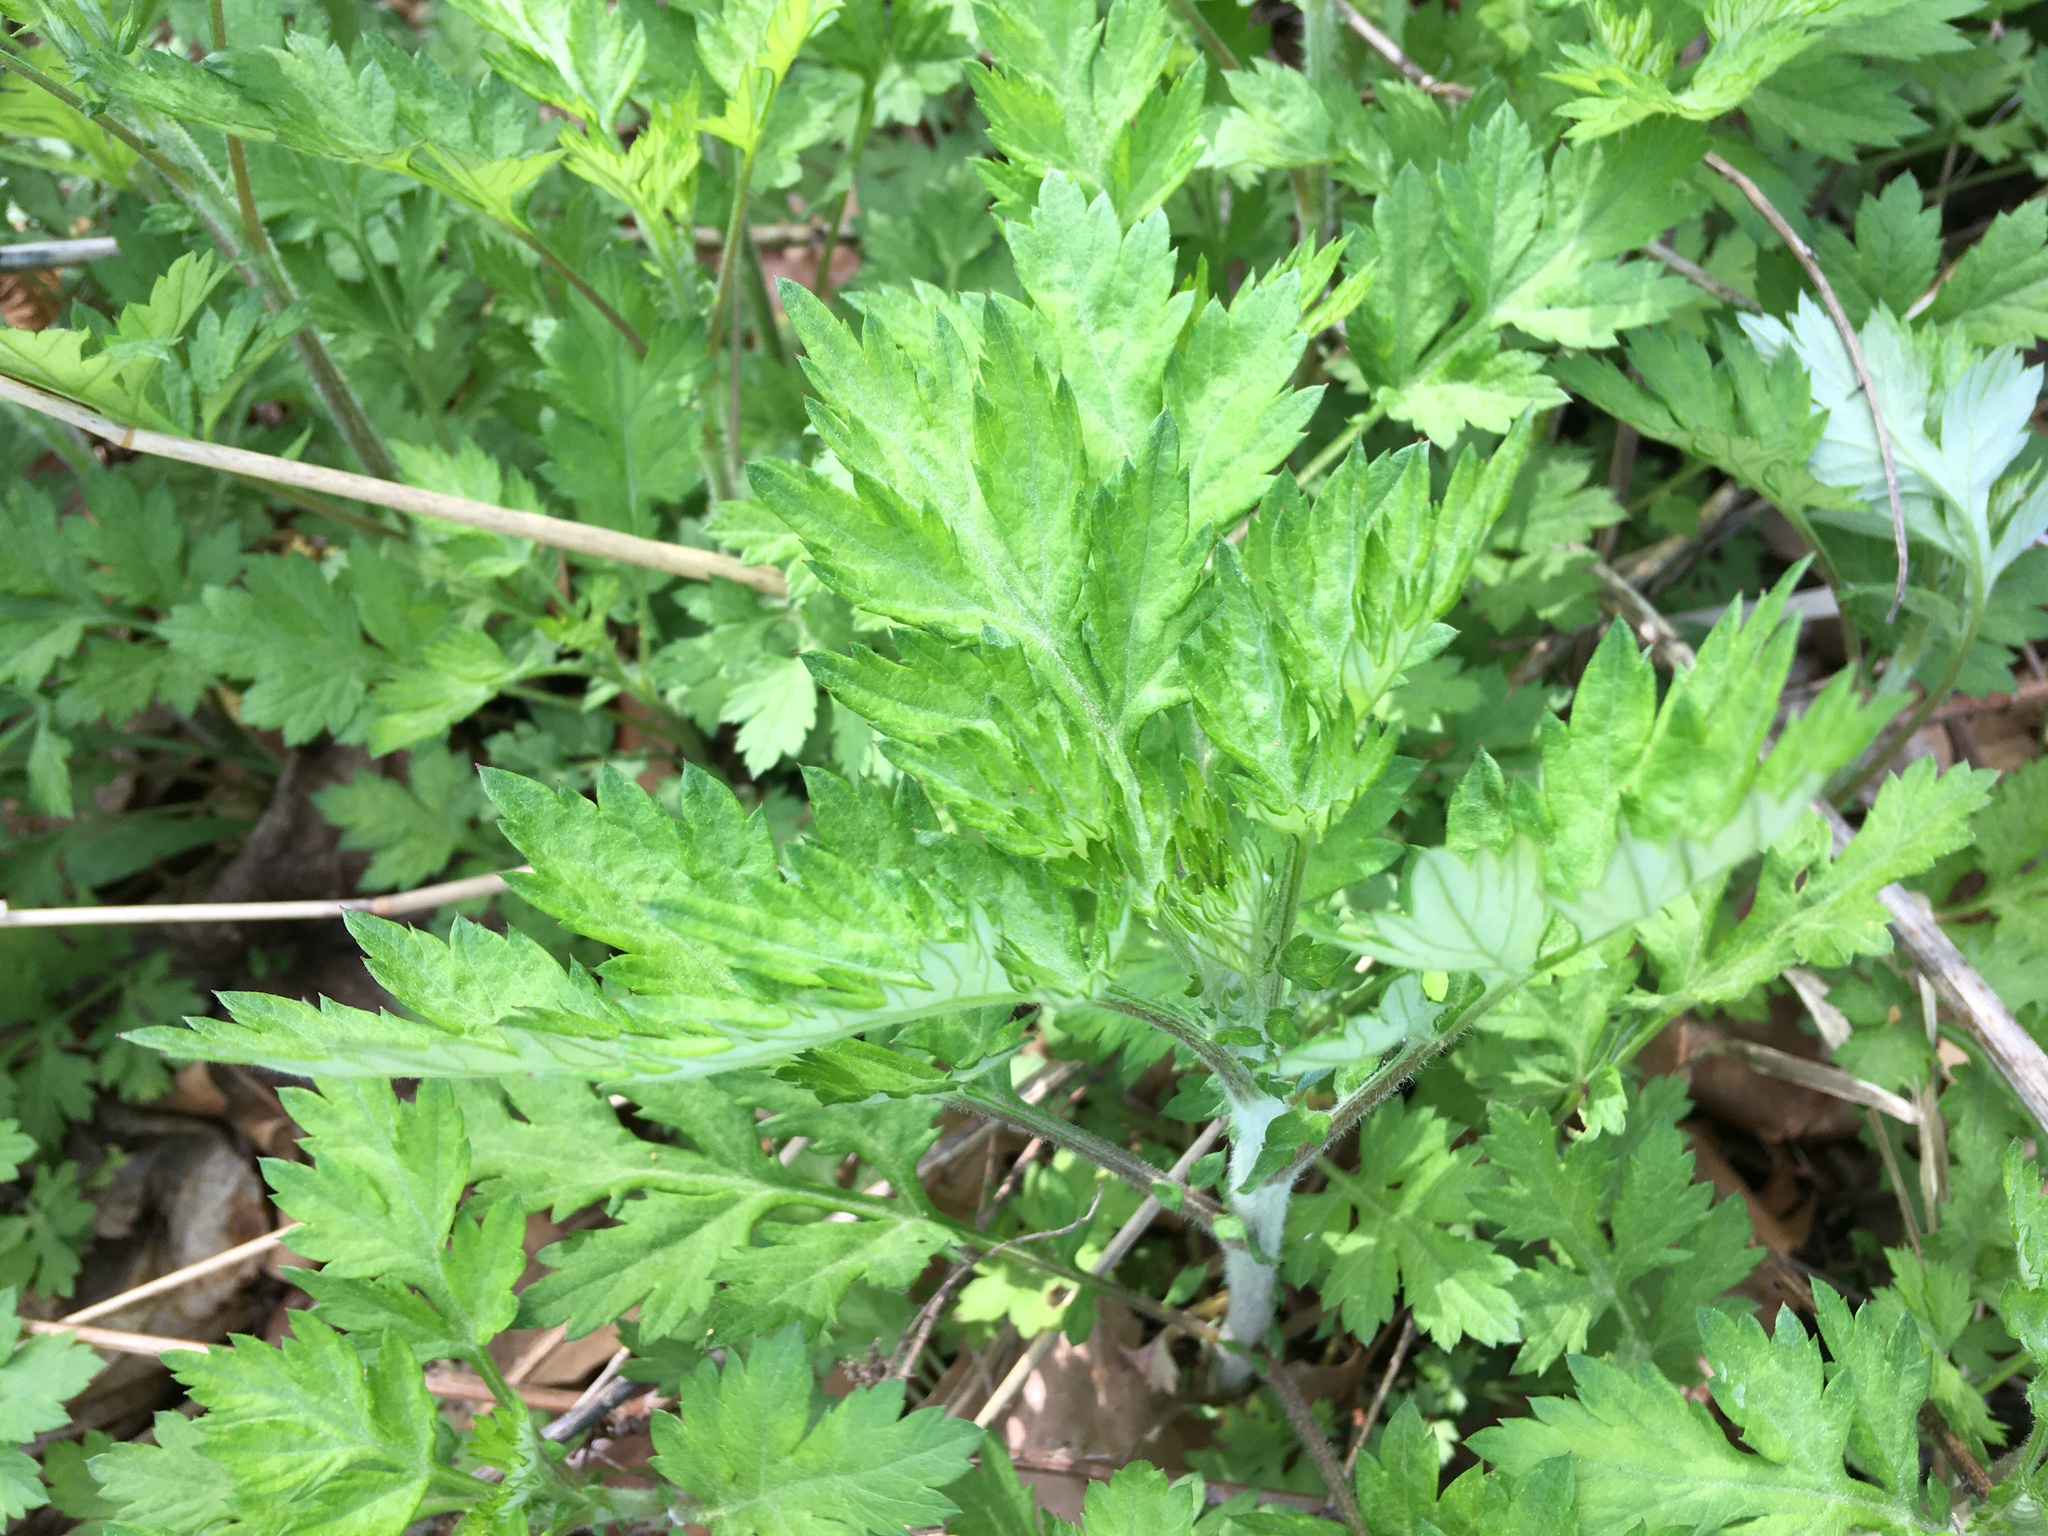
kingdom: Plantae
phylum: Tracheophyta
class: Magnoliopsida
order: Asterales
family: Asteraceae
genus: Artemisia
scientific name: Artemisia vulgaris
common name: Mugwort
